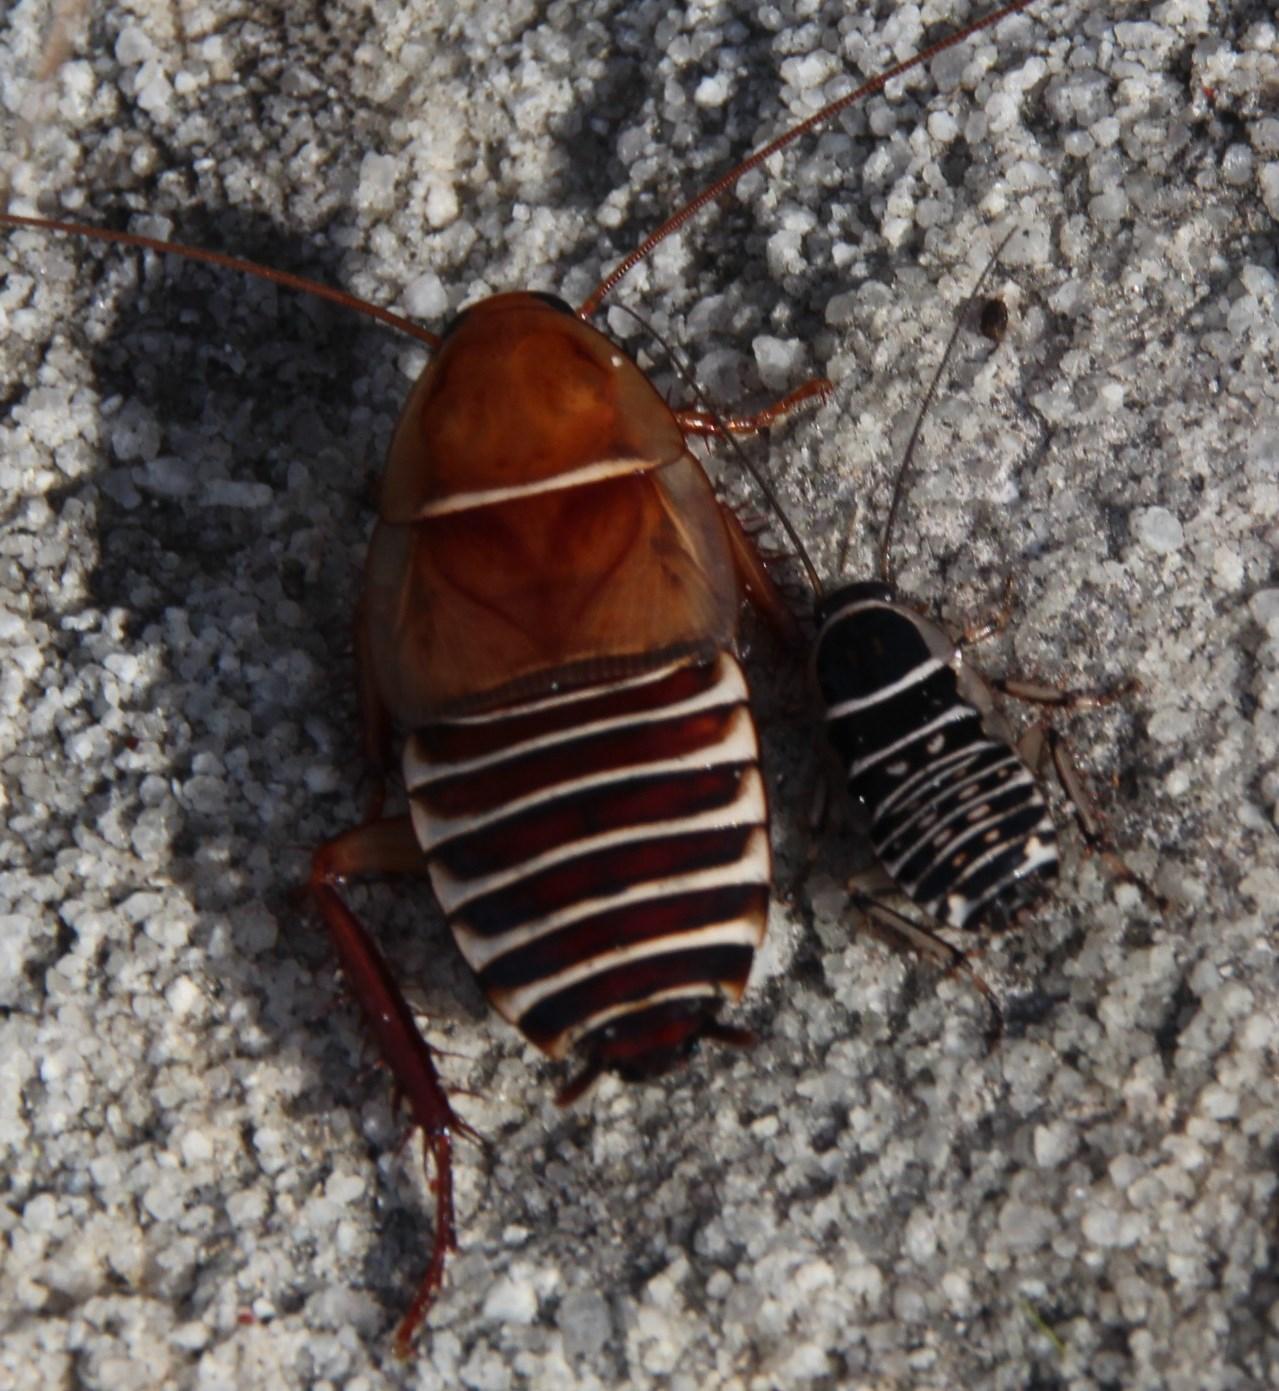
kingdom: Animalia
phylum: Arthropoda
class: Insecta
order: Blattodea
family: Ectobiidae
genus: Temnopteryx
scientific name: Temnopteryx phalerata
